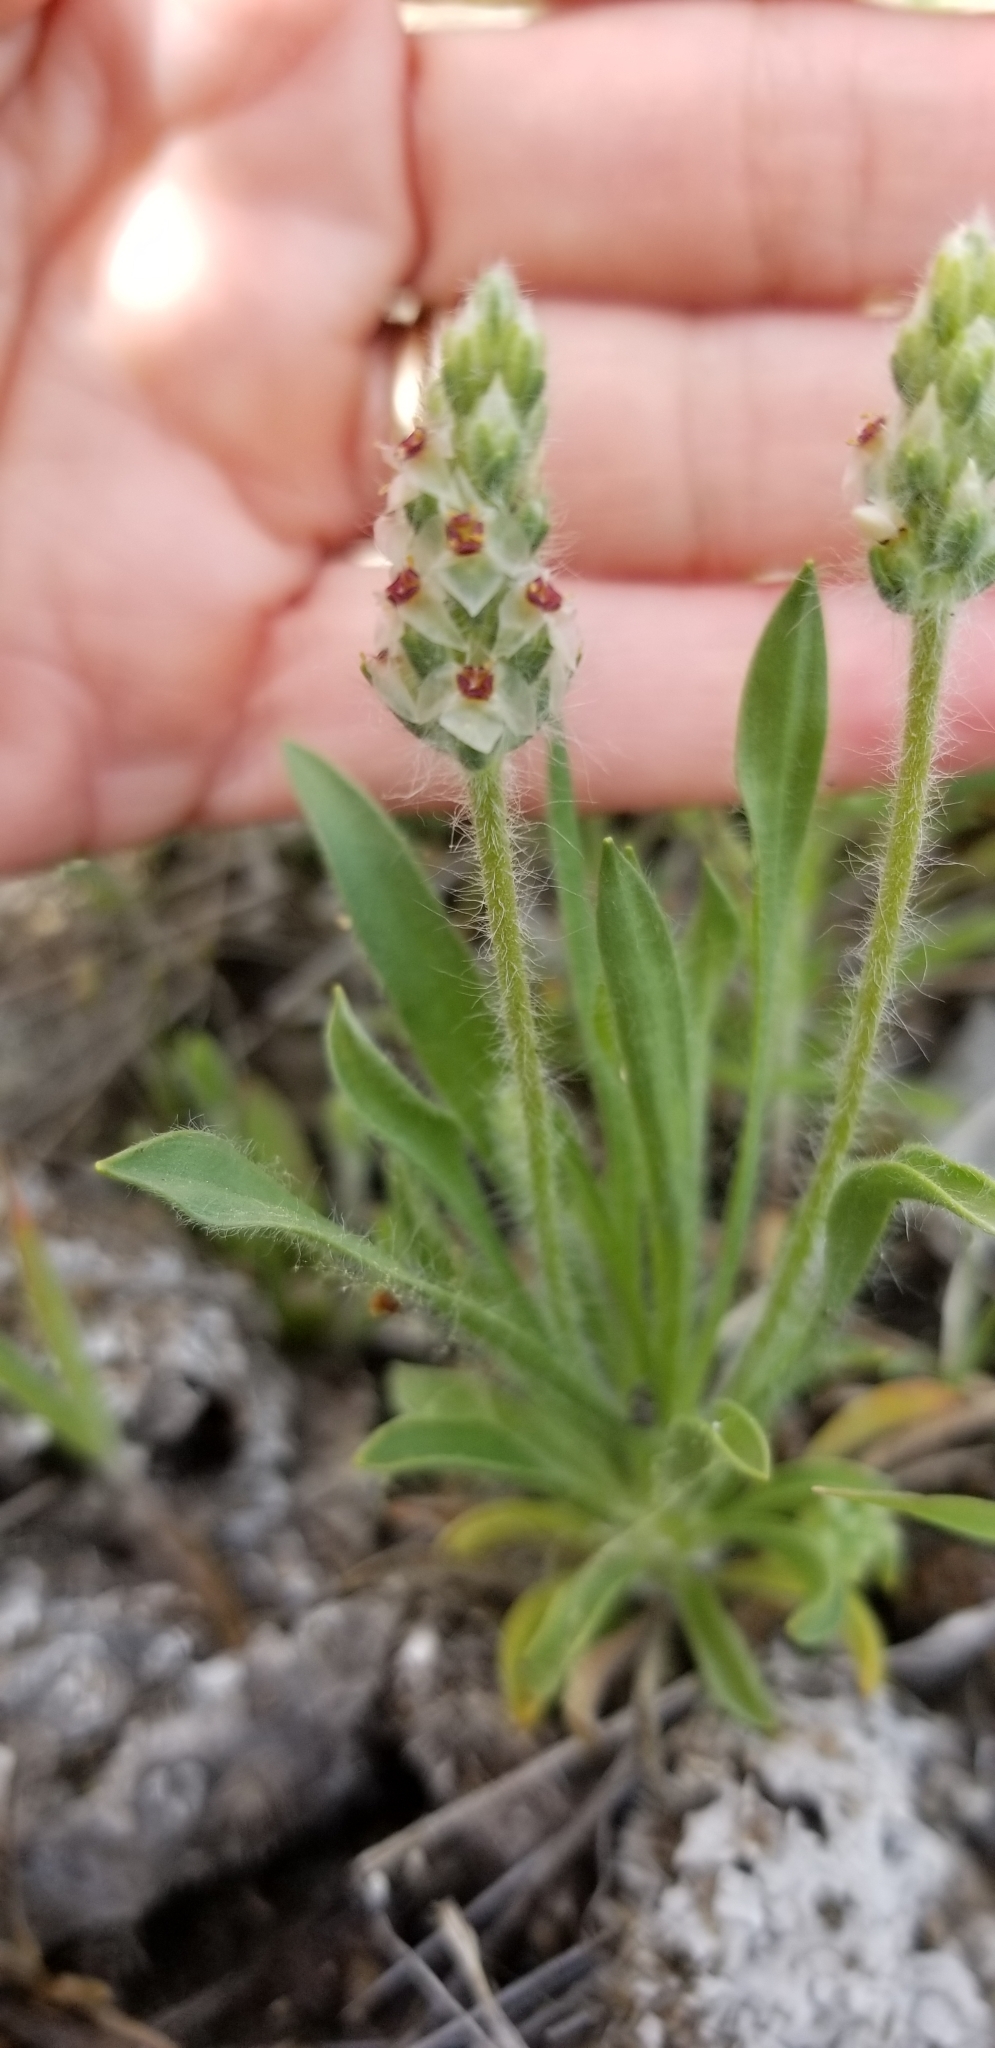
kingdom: Plantae
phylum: Tracheophyta
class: Magnoliopsida
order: Lamiales
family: Plantaginaceae
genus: Plantago
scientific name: Plantago helleri
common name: Heller's plantain
